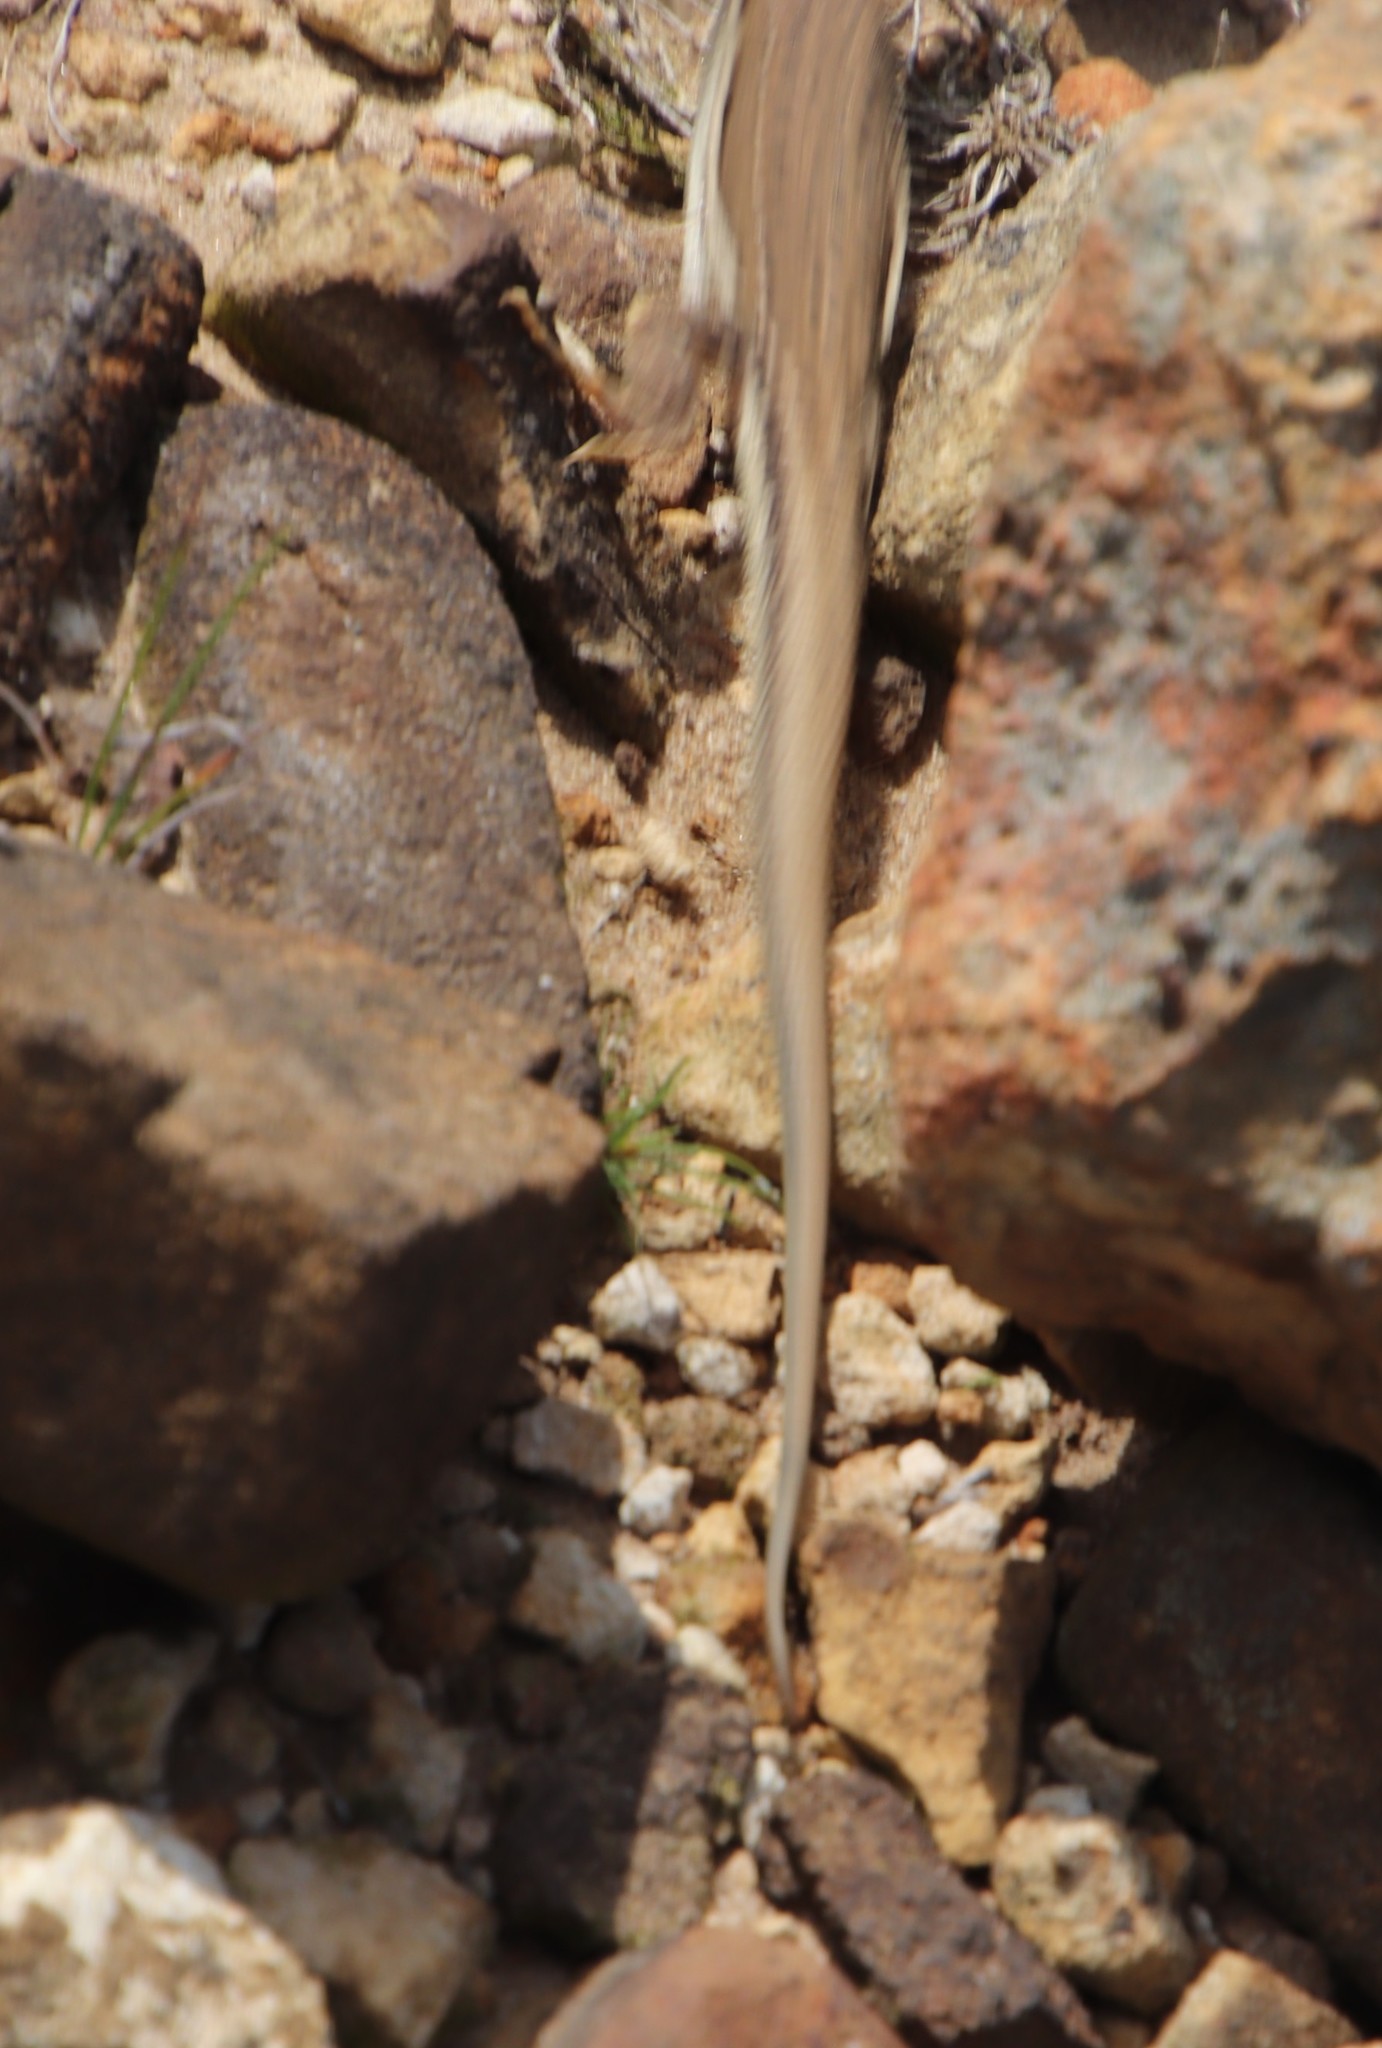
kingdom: Animalia
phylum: Chordata
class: Squamata
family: Lacertidae
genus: Pedioplanis
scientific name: Pedioplanis burchelli
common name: Burchell's sand lizard
